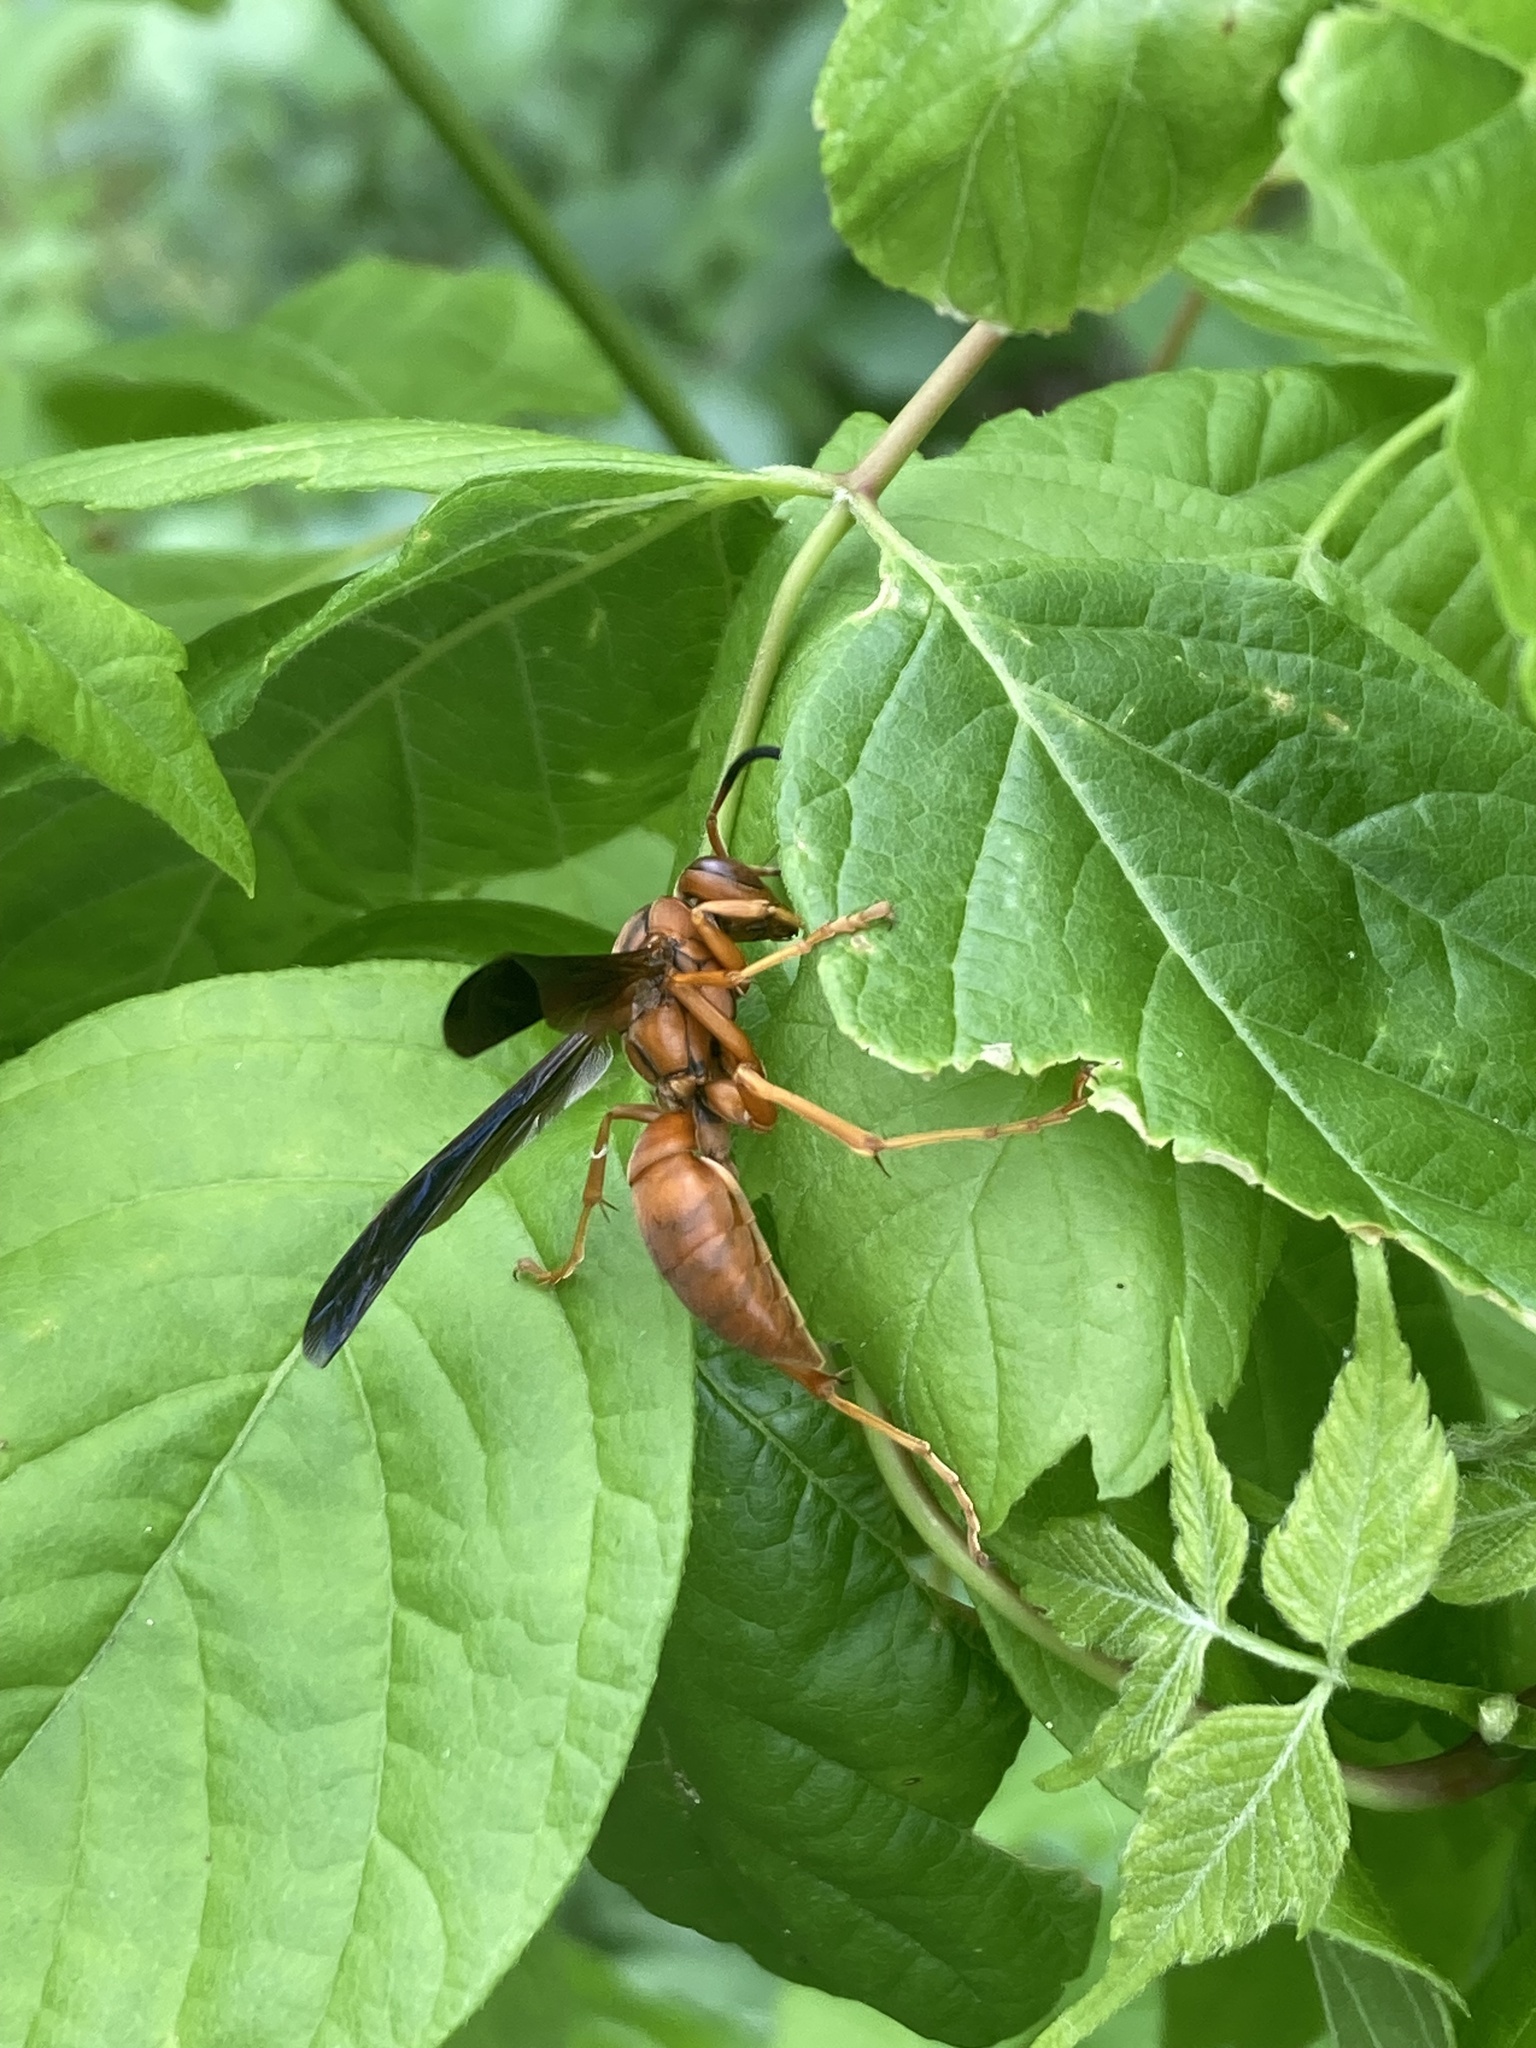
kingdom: Animalia
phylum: Arthropoda
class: Insecta
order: Hymenoptera
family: Vespidae
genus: Fuscopolistes
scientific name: Fuscopolistes
